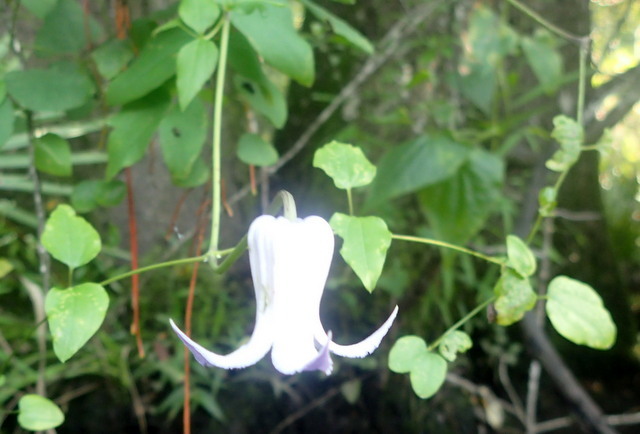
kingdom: Plantae
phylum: Tracheophyta
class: Magnoliopsida
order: Ranunculales
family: Ranunculaceae
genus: Clematis
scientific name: Clematis crispa
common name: Curly clematis
